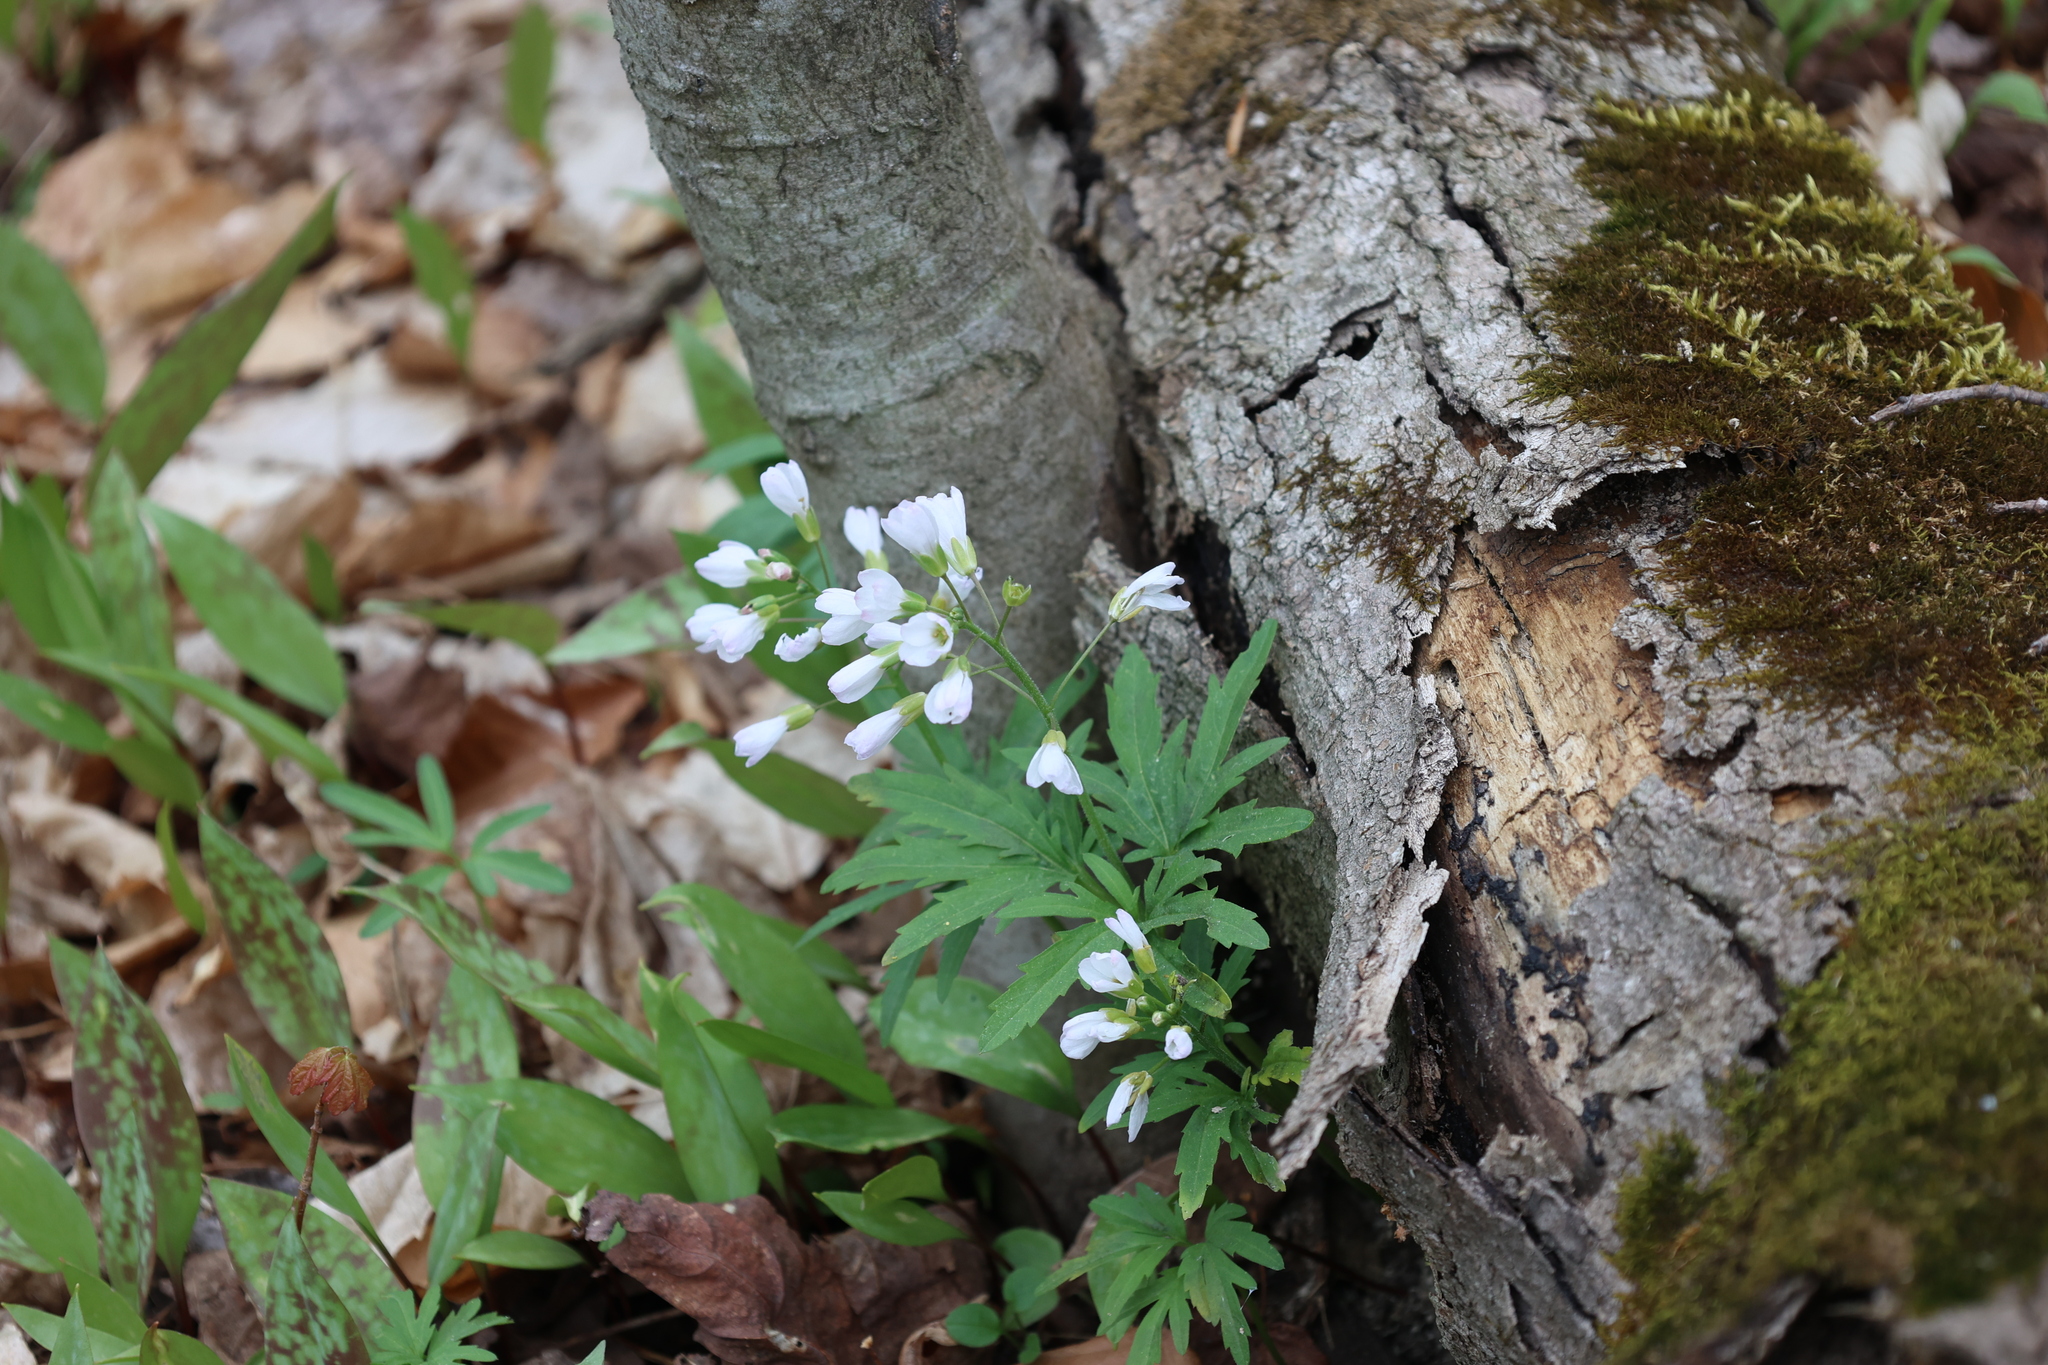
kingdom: Plantae
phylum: Tracheophyta
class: Magnoliopsida
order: Brassicales
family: Brassicaceae
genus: Cardamine
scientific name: Cardamine concatenata
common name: Cut-leaf toothcup
